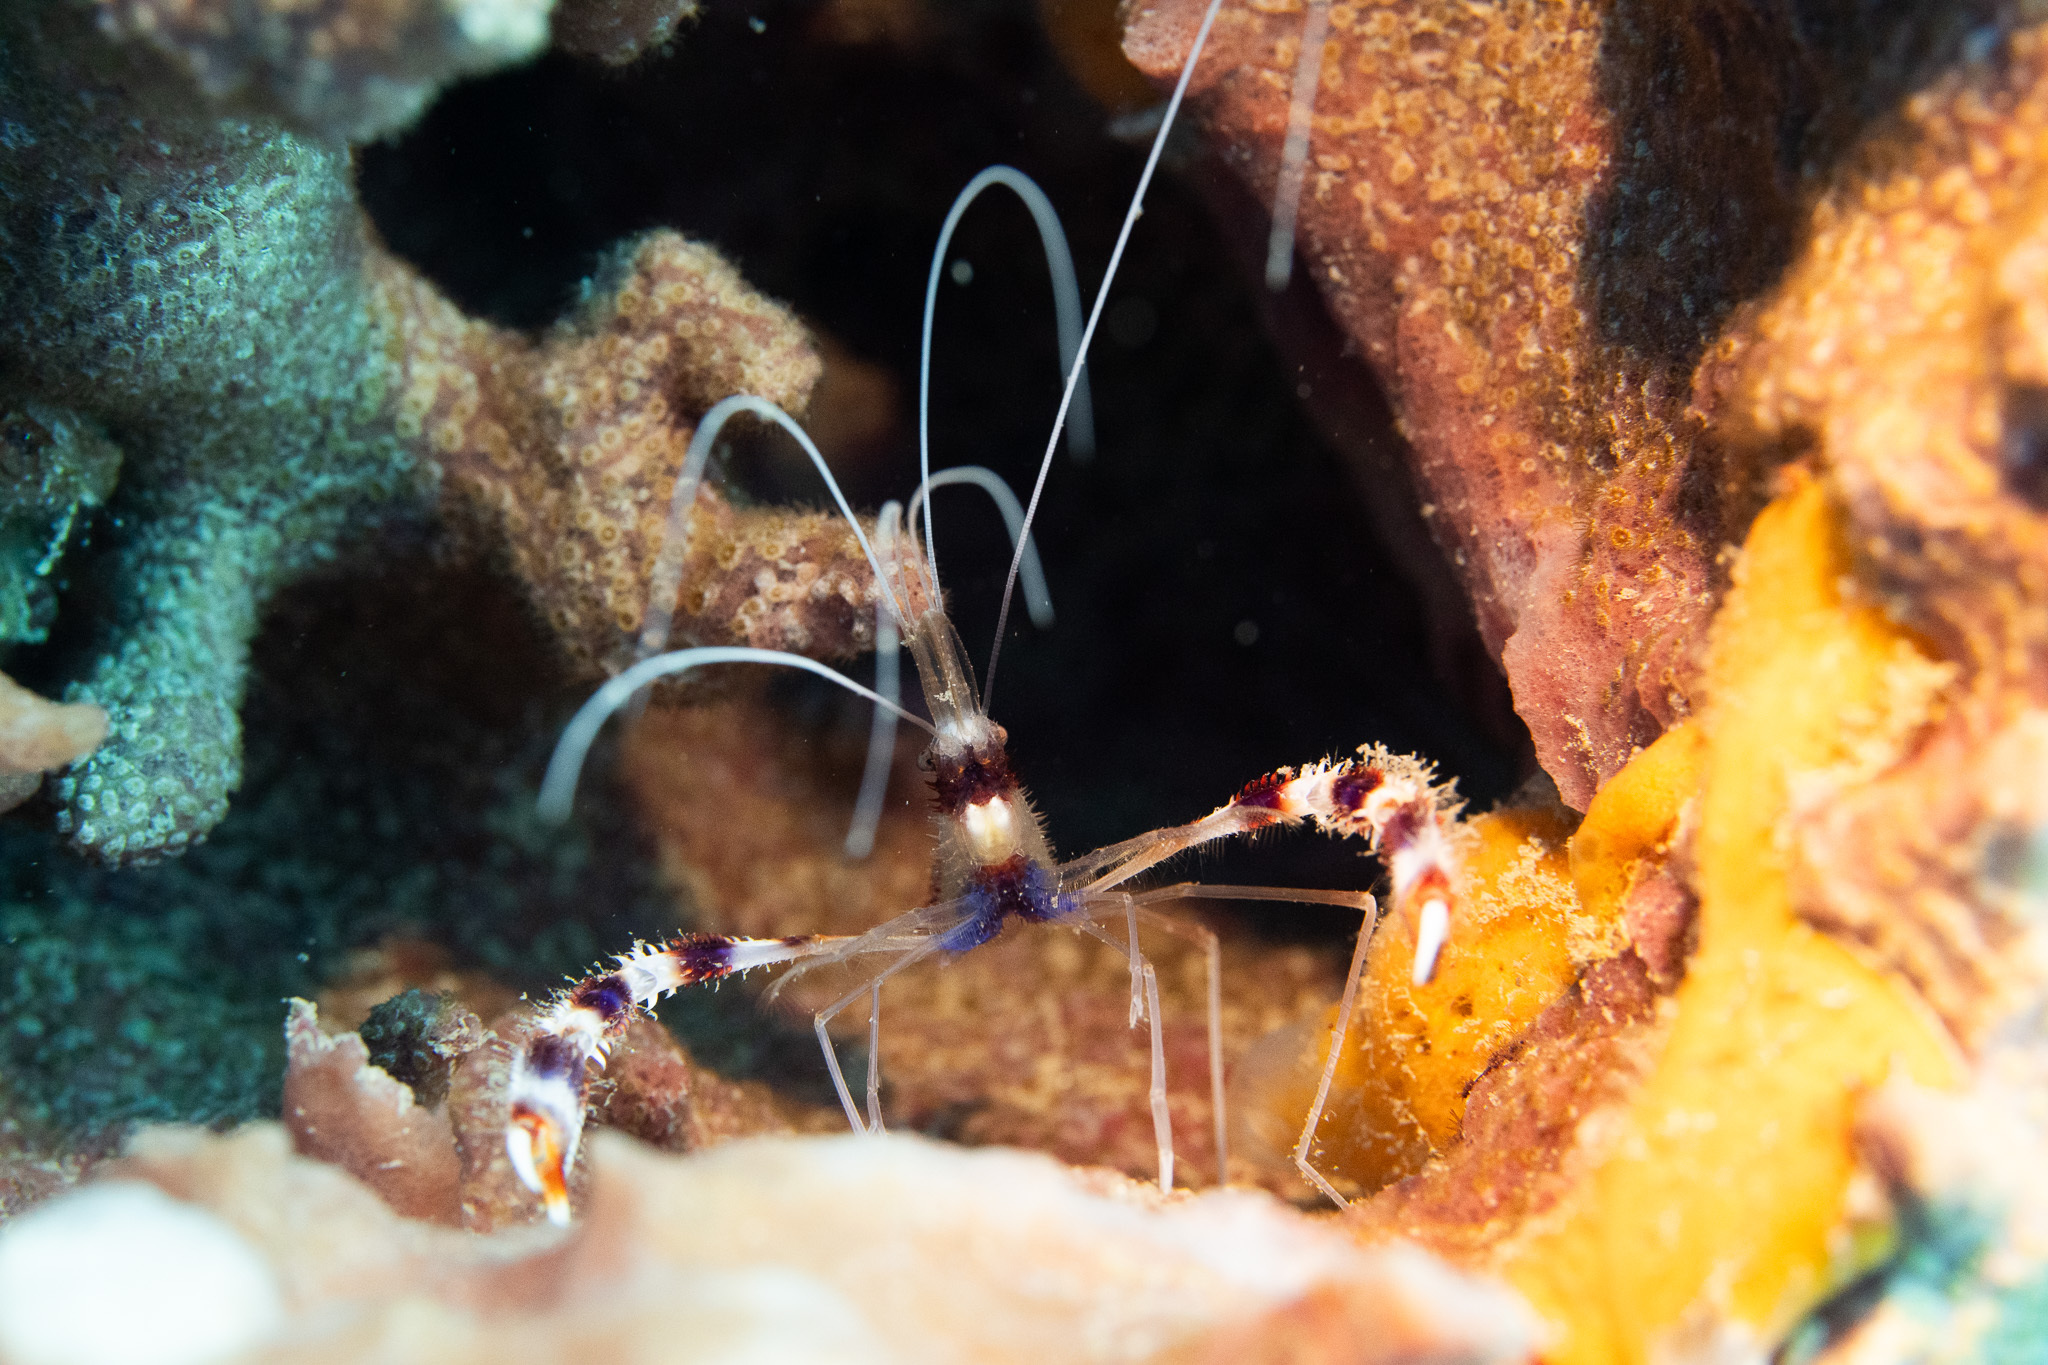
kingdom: Animalia
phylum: Arthropoda
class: Malacostraca
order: Decapoda
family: Stenopodidae
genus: Stenopus
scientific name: Stenopus hispidus
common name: Banded coral shrimp
